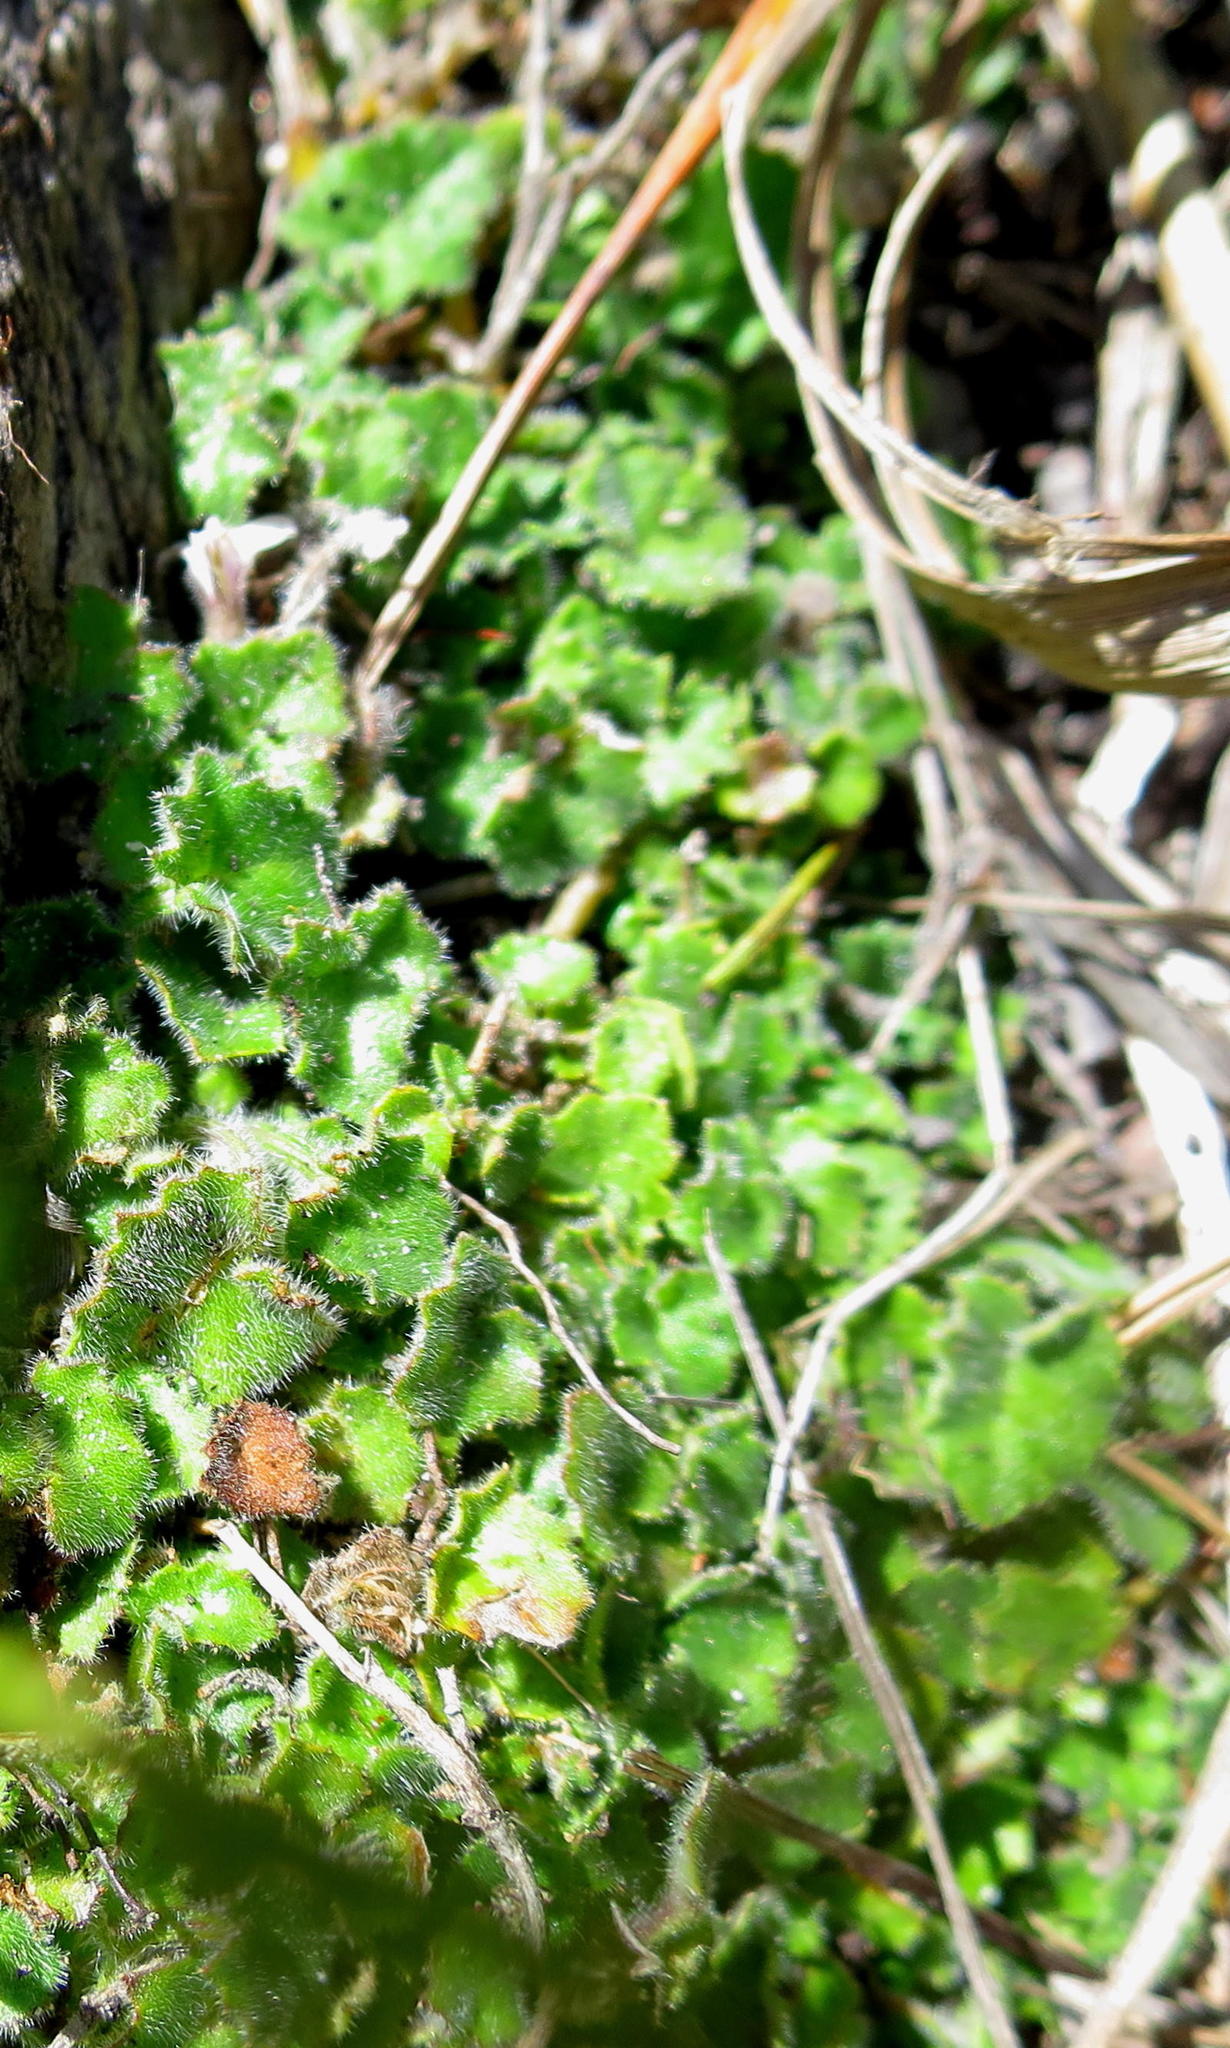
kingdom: Plantae
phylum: Tracheophyta
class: Magnoliopsida
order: Asterales
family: Campanulaceae
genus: Lobelia
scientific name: Lobelia ardisiandroides
